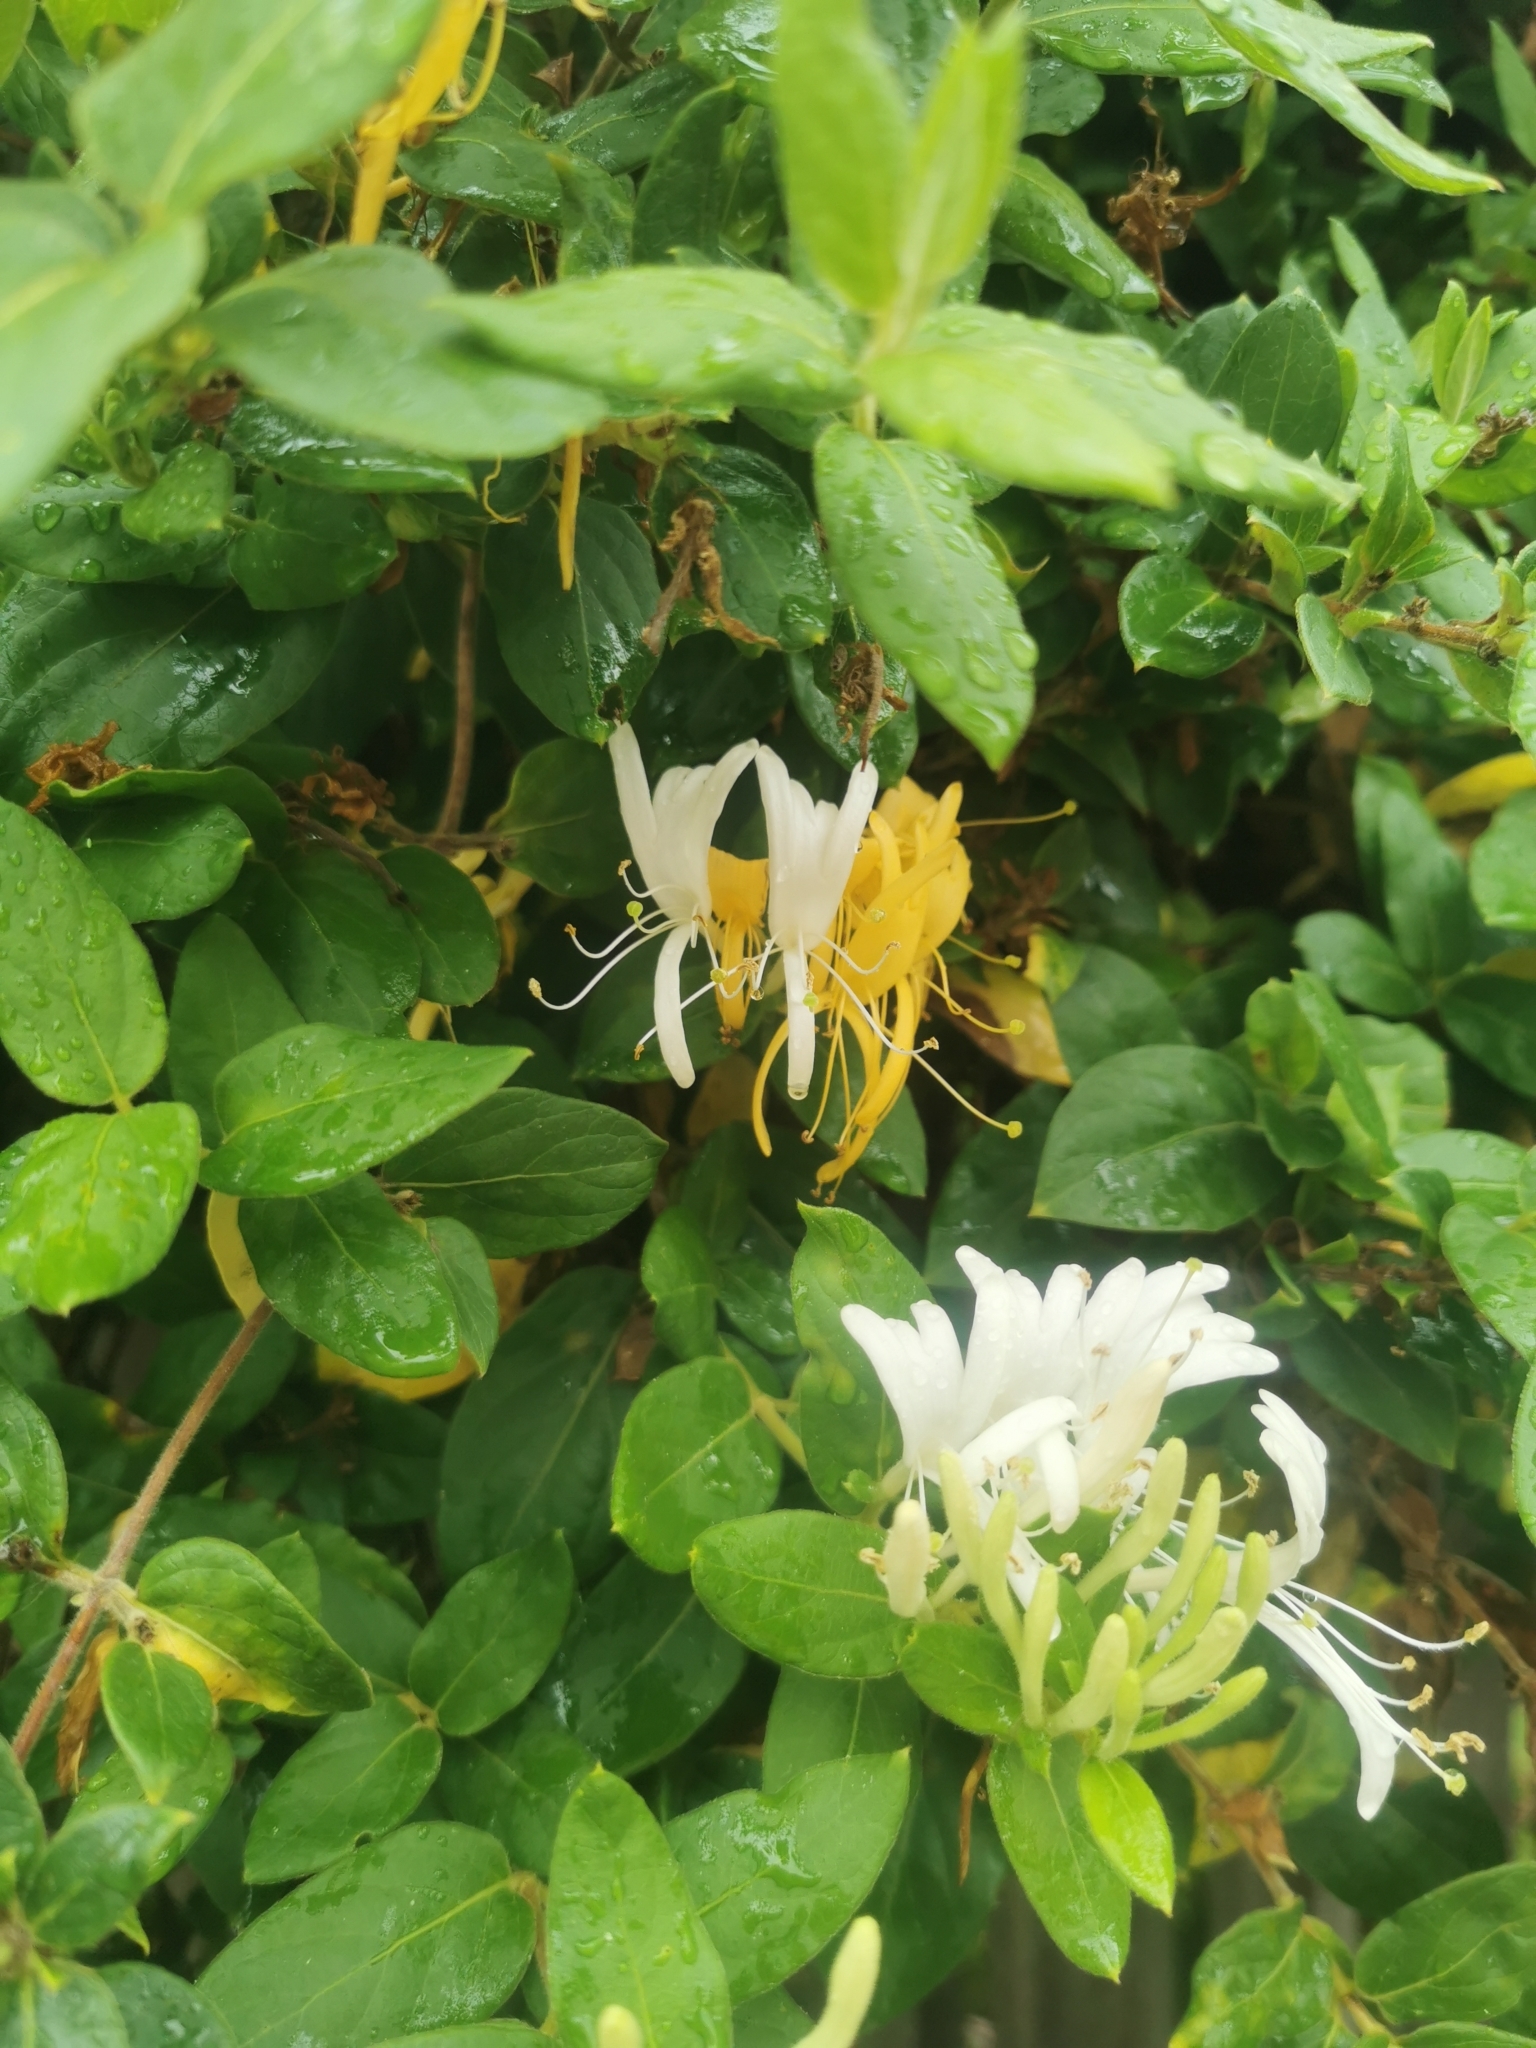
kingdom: Plantae
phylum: Tracheophyta
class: Magnoliopsida
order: Dipsacales
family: Caprifoliaceae
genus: Lonicera
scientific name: Lonicera japonica
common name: Japanese honeysuckle
